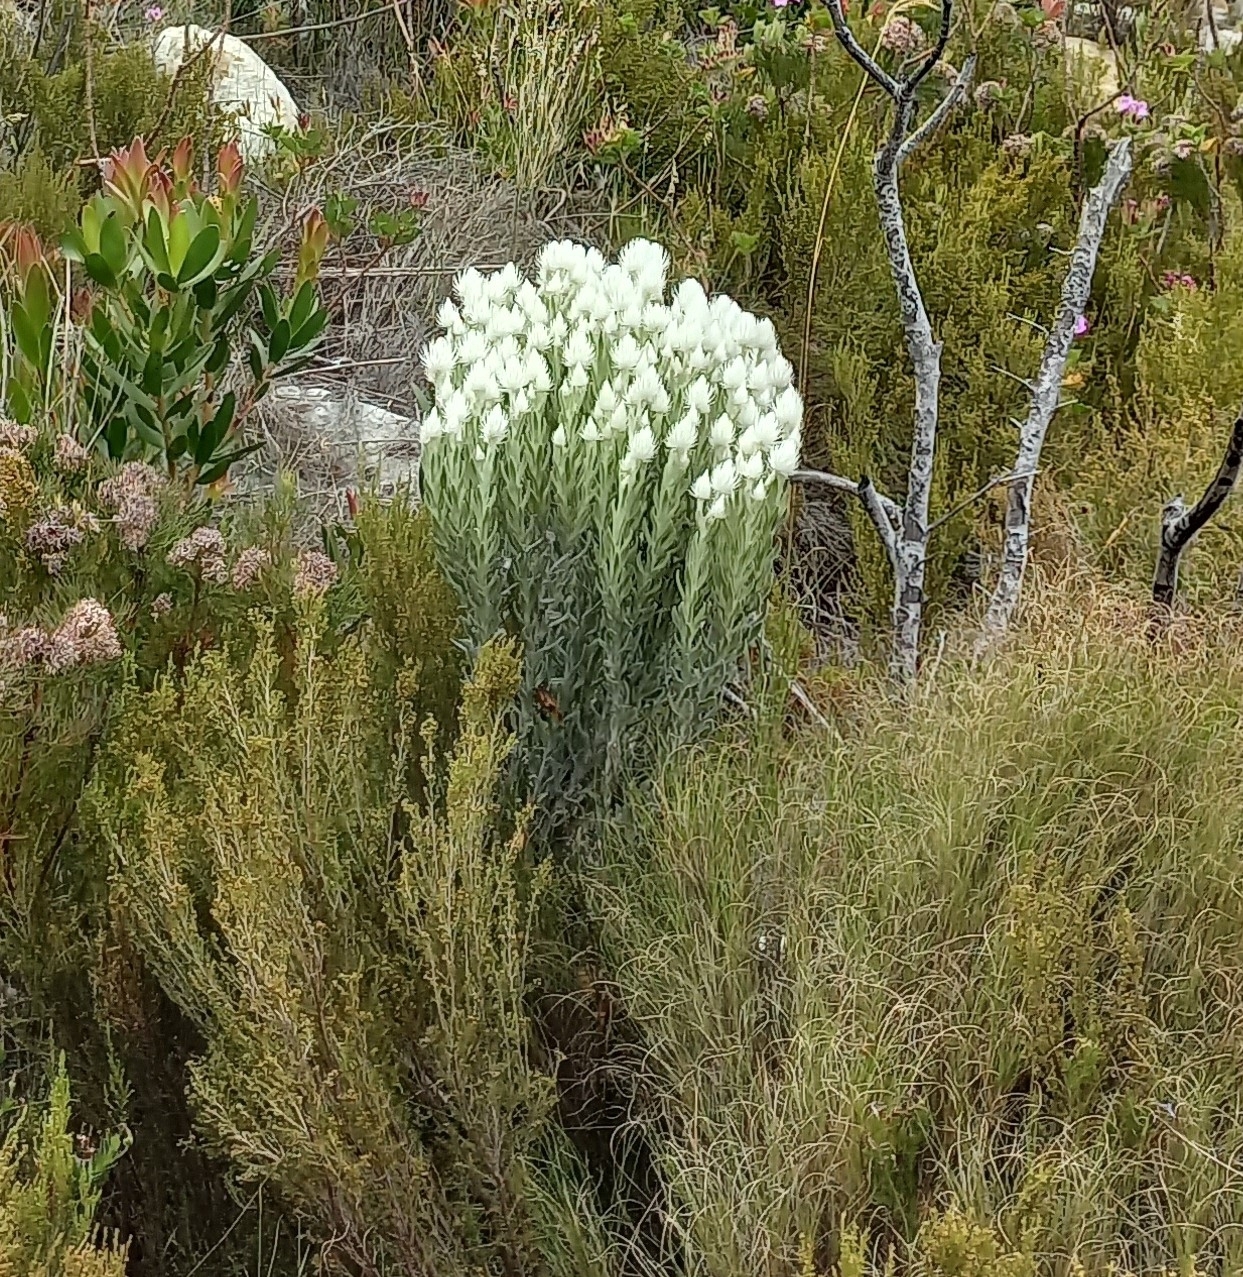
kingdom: Plantae
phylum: Tracheophyta
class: Magnoliopsida
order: Asterales
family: Asteraceae
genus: Syncarpha
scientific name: Syncarpha vestita
